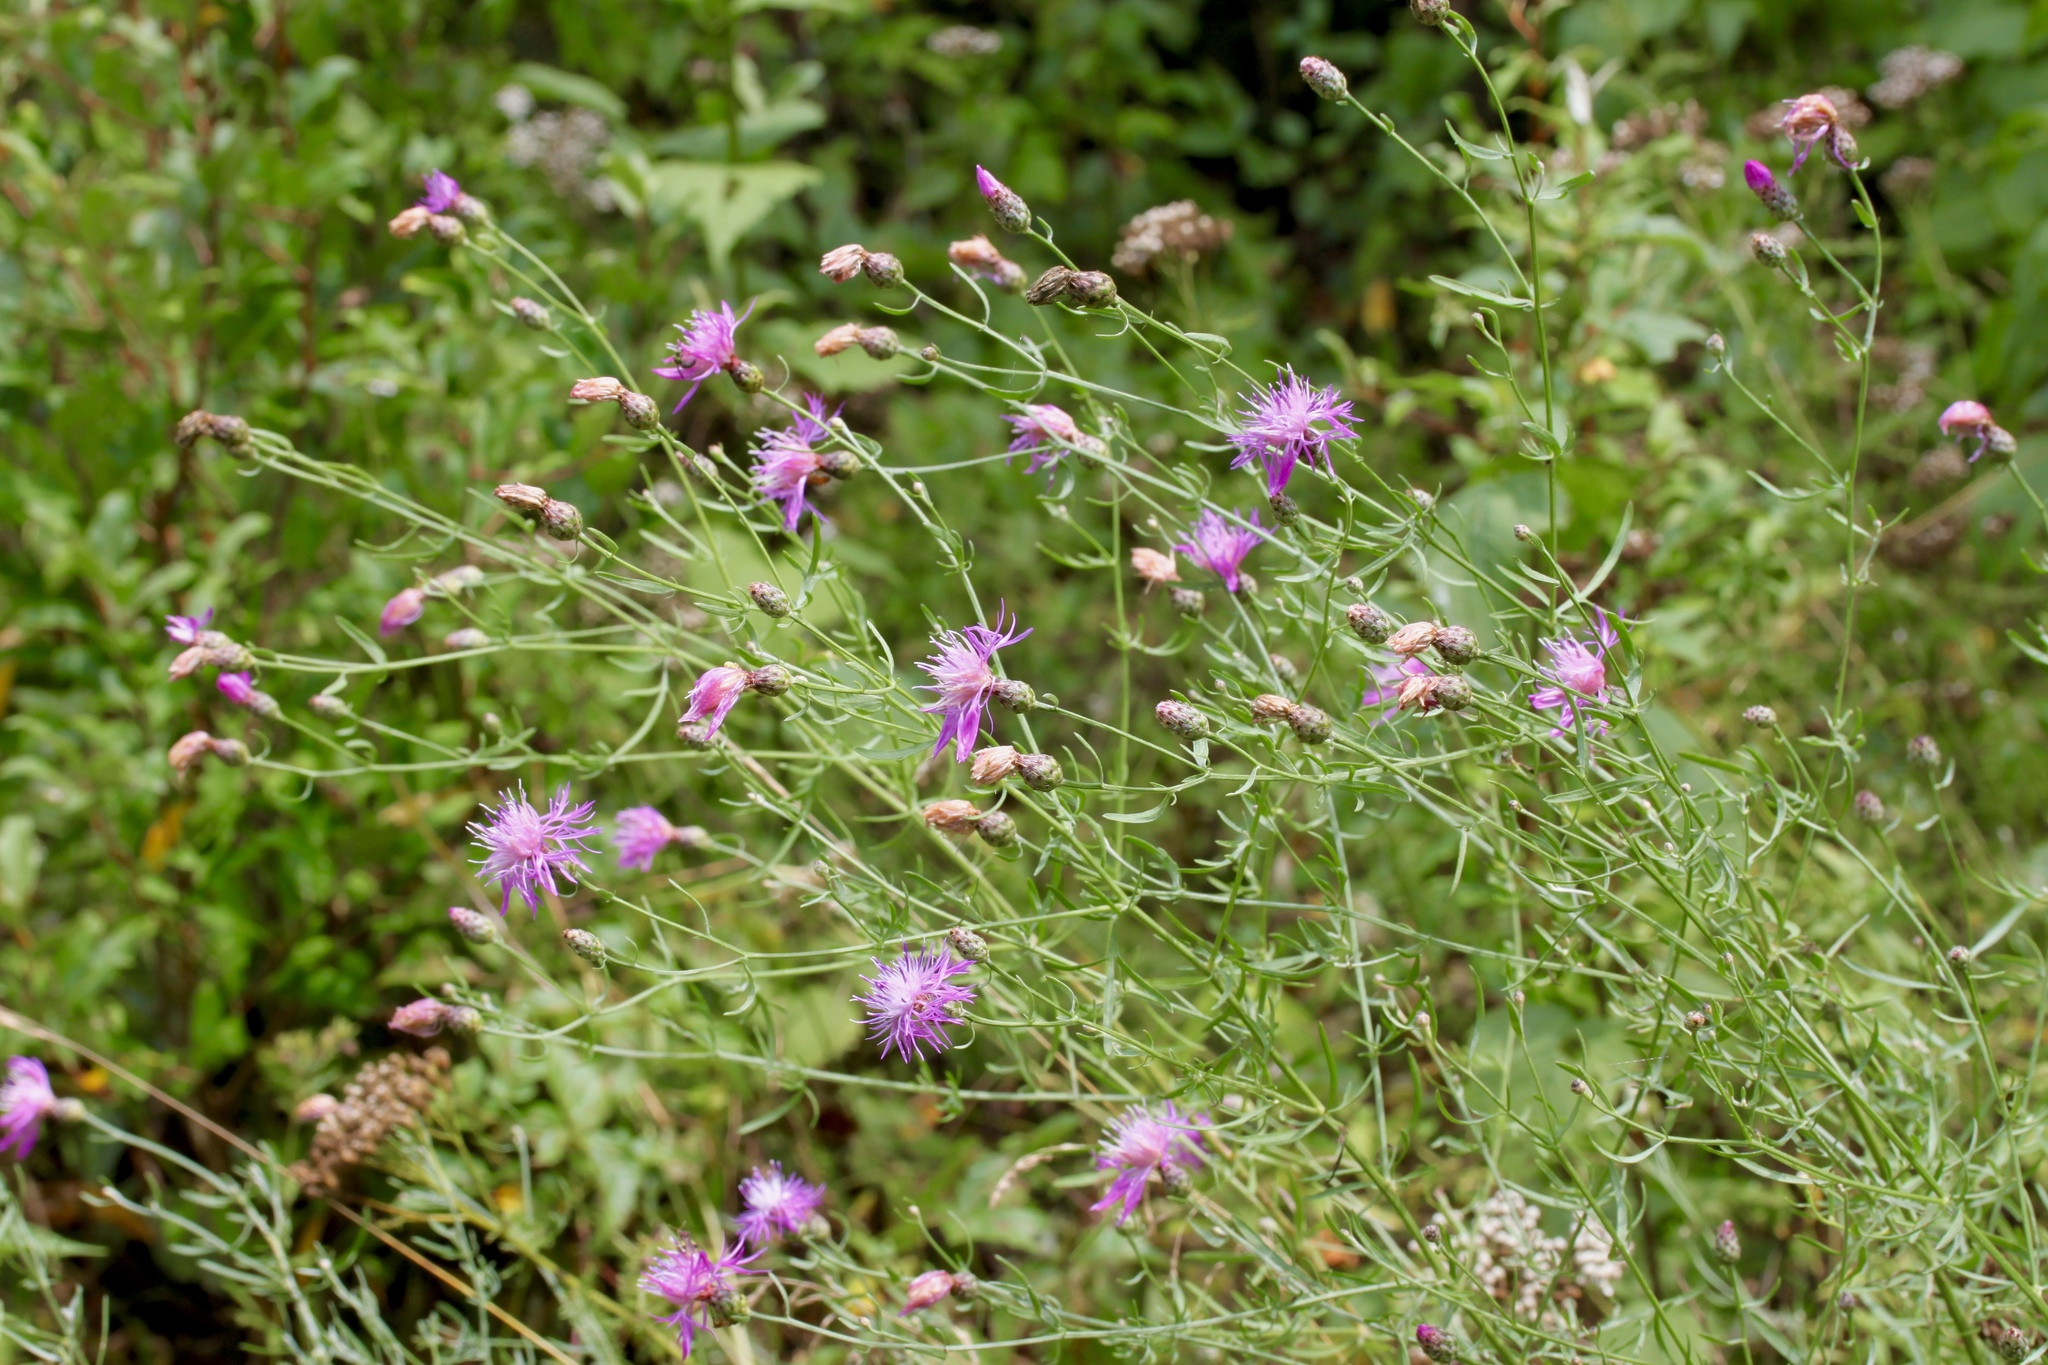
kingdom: Plantae
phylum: Tracheophyta
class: Magnoliopsida
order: Asterales
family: Asteraceae
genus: Centaurea
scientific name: Centaurea stoebe
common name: Spotted knapweed
